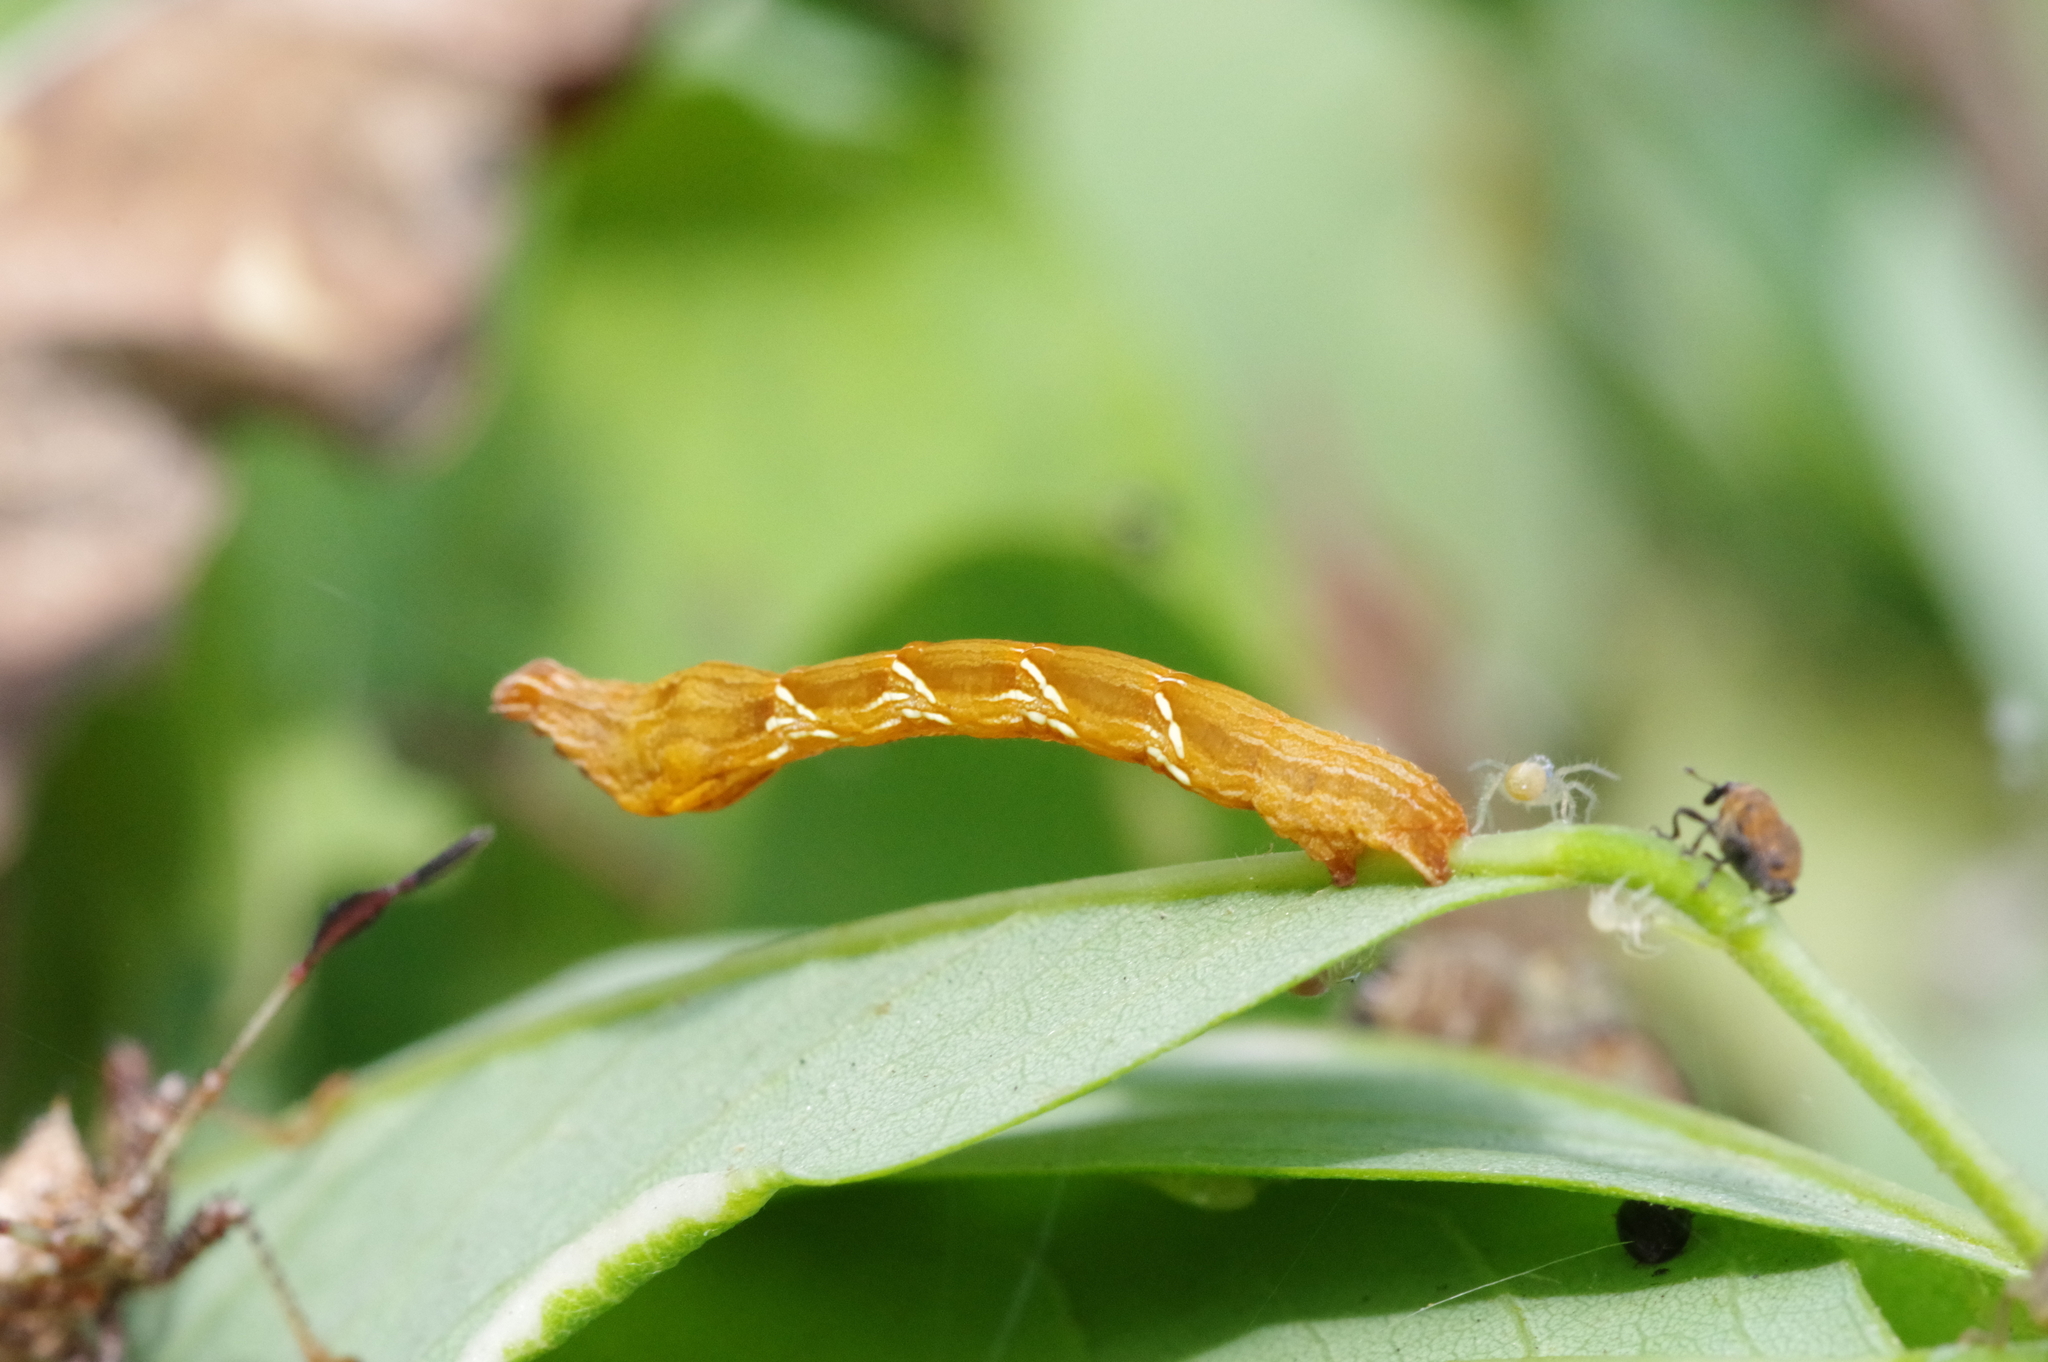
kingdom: Animalia
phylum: Arthropoda
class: Insecta
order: Lepidoptera
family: Geometridae
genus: Timandra
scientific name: Timandra amaturaria
